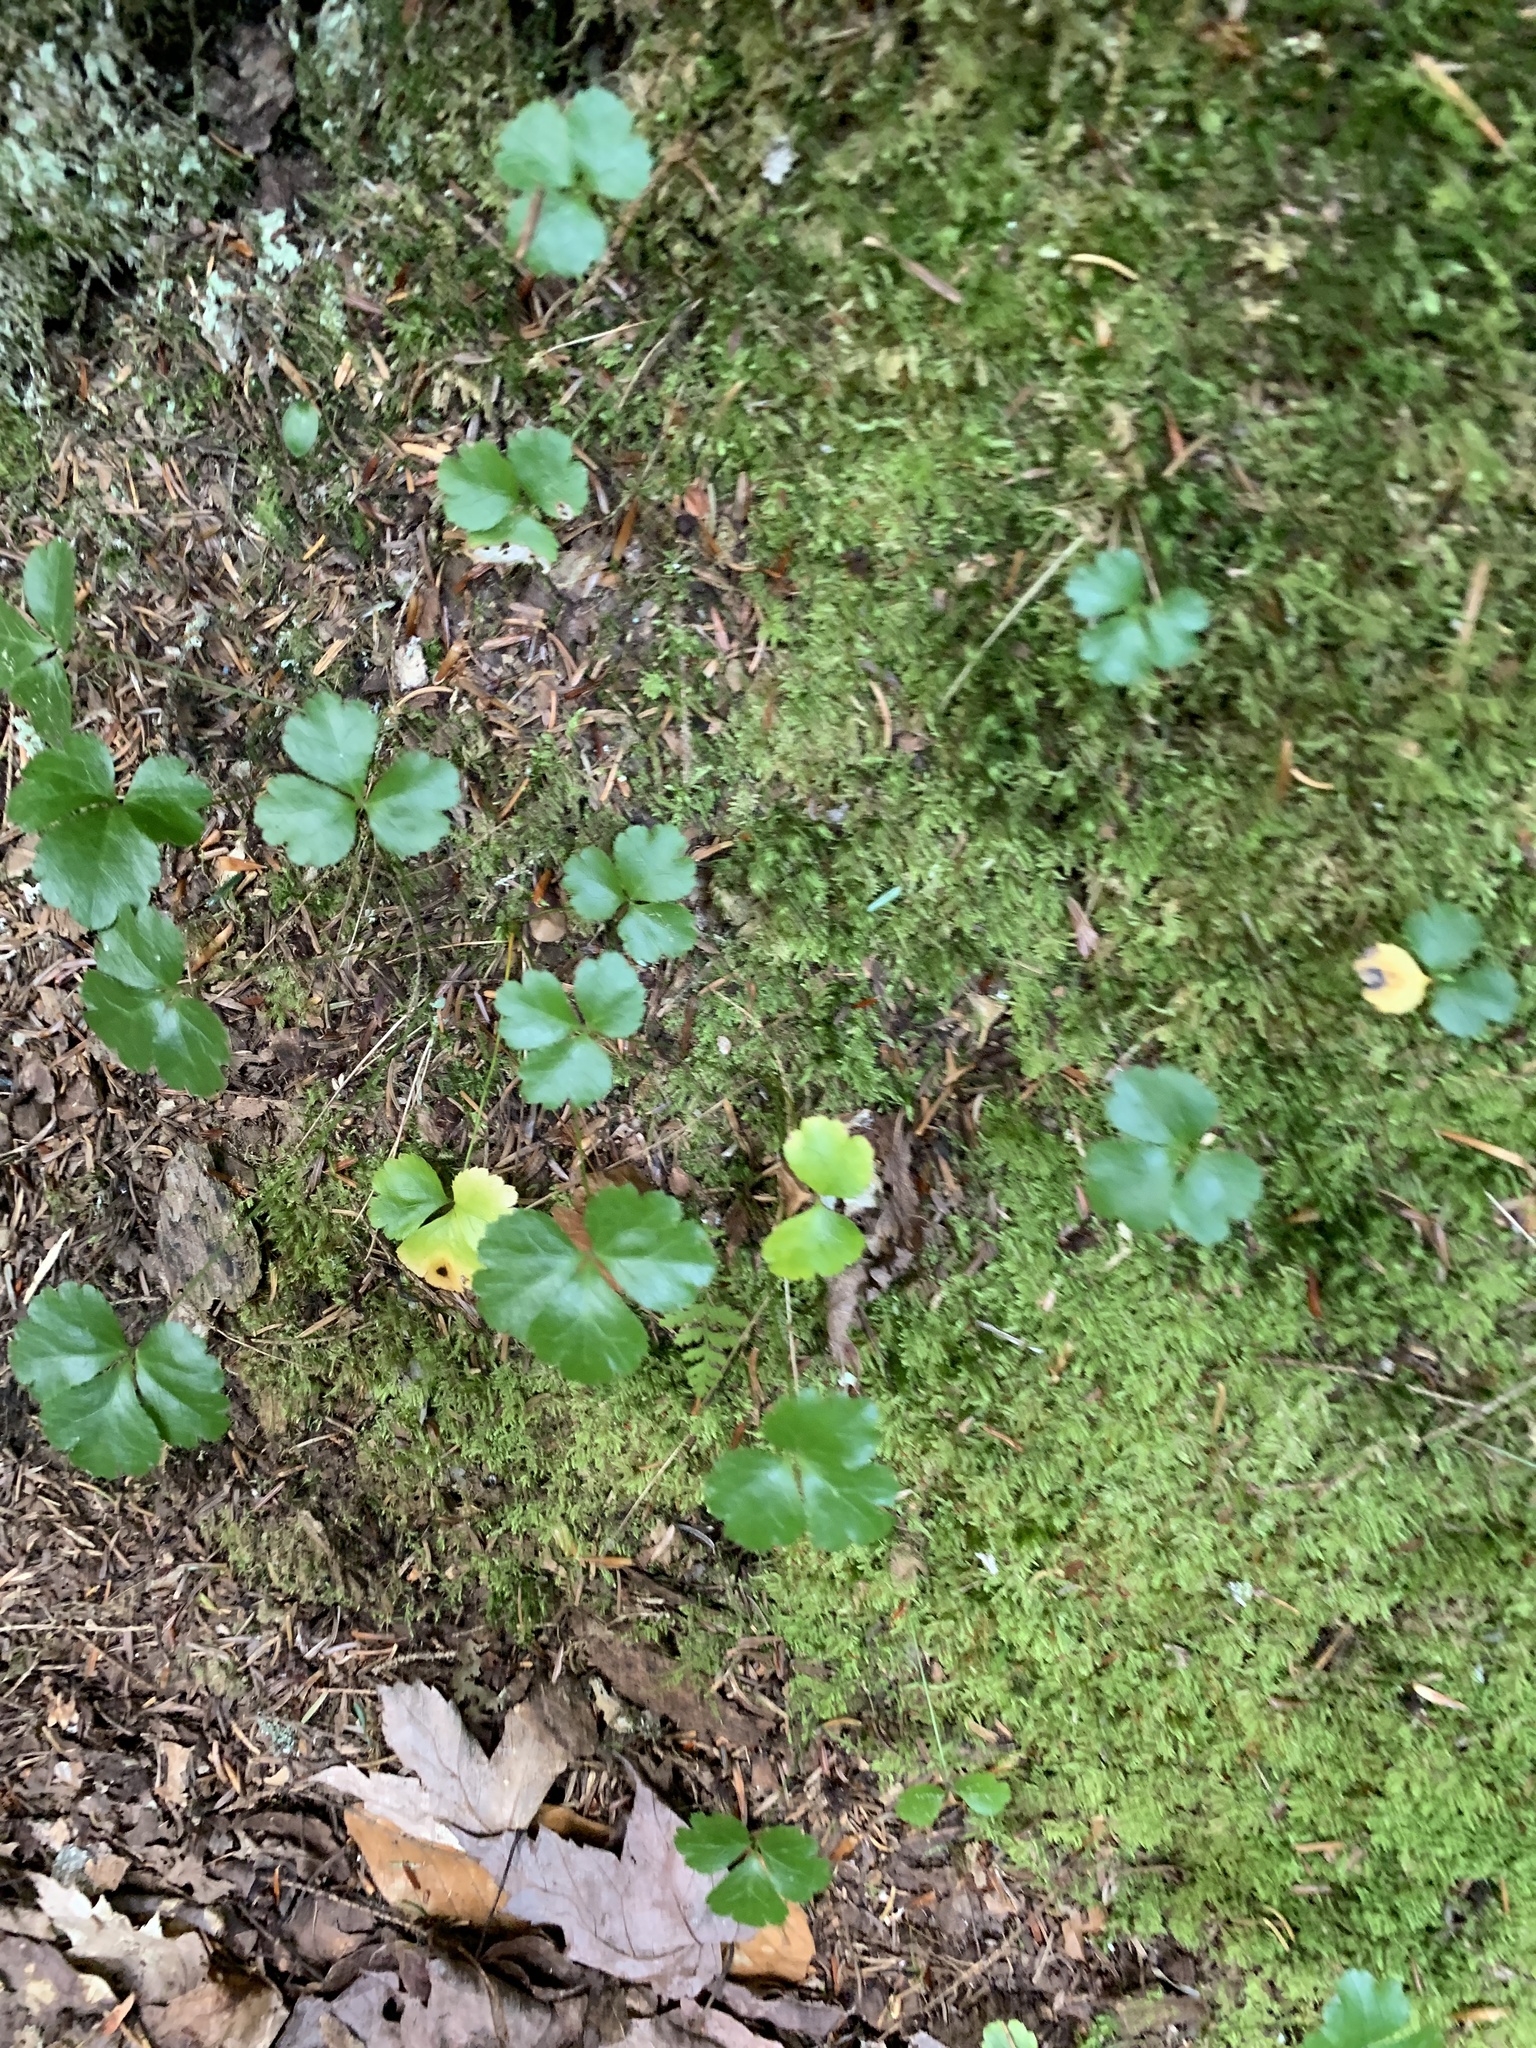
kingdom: Plantae
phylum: Tracheophyta
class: Magnoliopsida
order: Ranunculales
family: Ranunculaceae
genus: Coptis
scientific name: Coptis trifolia
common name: Canker-root
